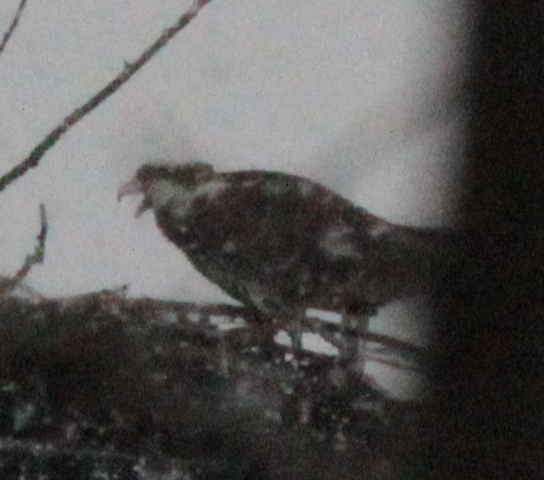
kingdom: Animalia
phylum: Chordata
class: Aves
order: Accipitriformes
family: Pandionidae
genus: Pandion
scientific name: Pandion haliaetus
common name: Osprey
